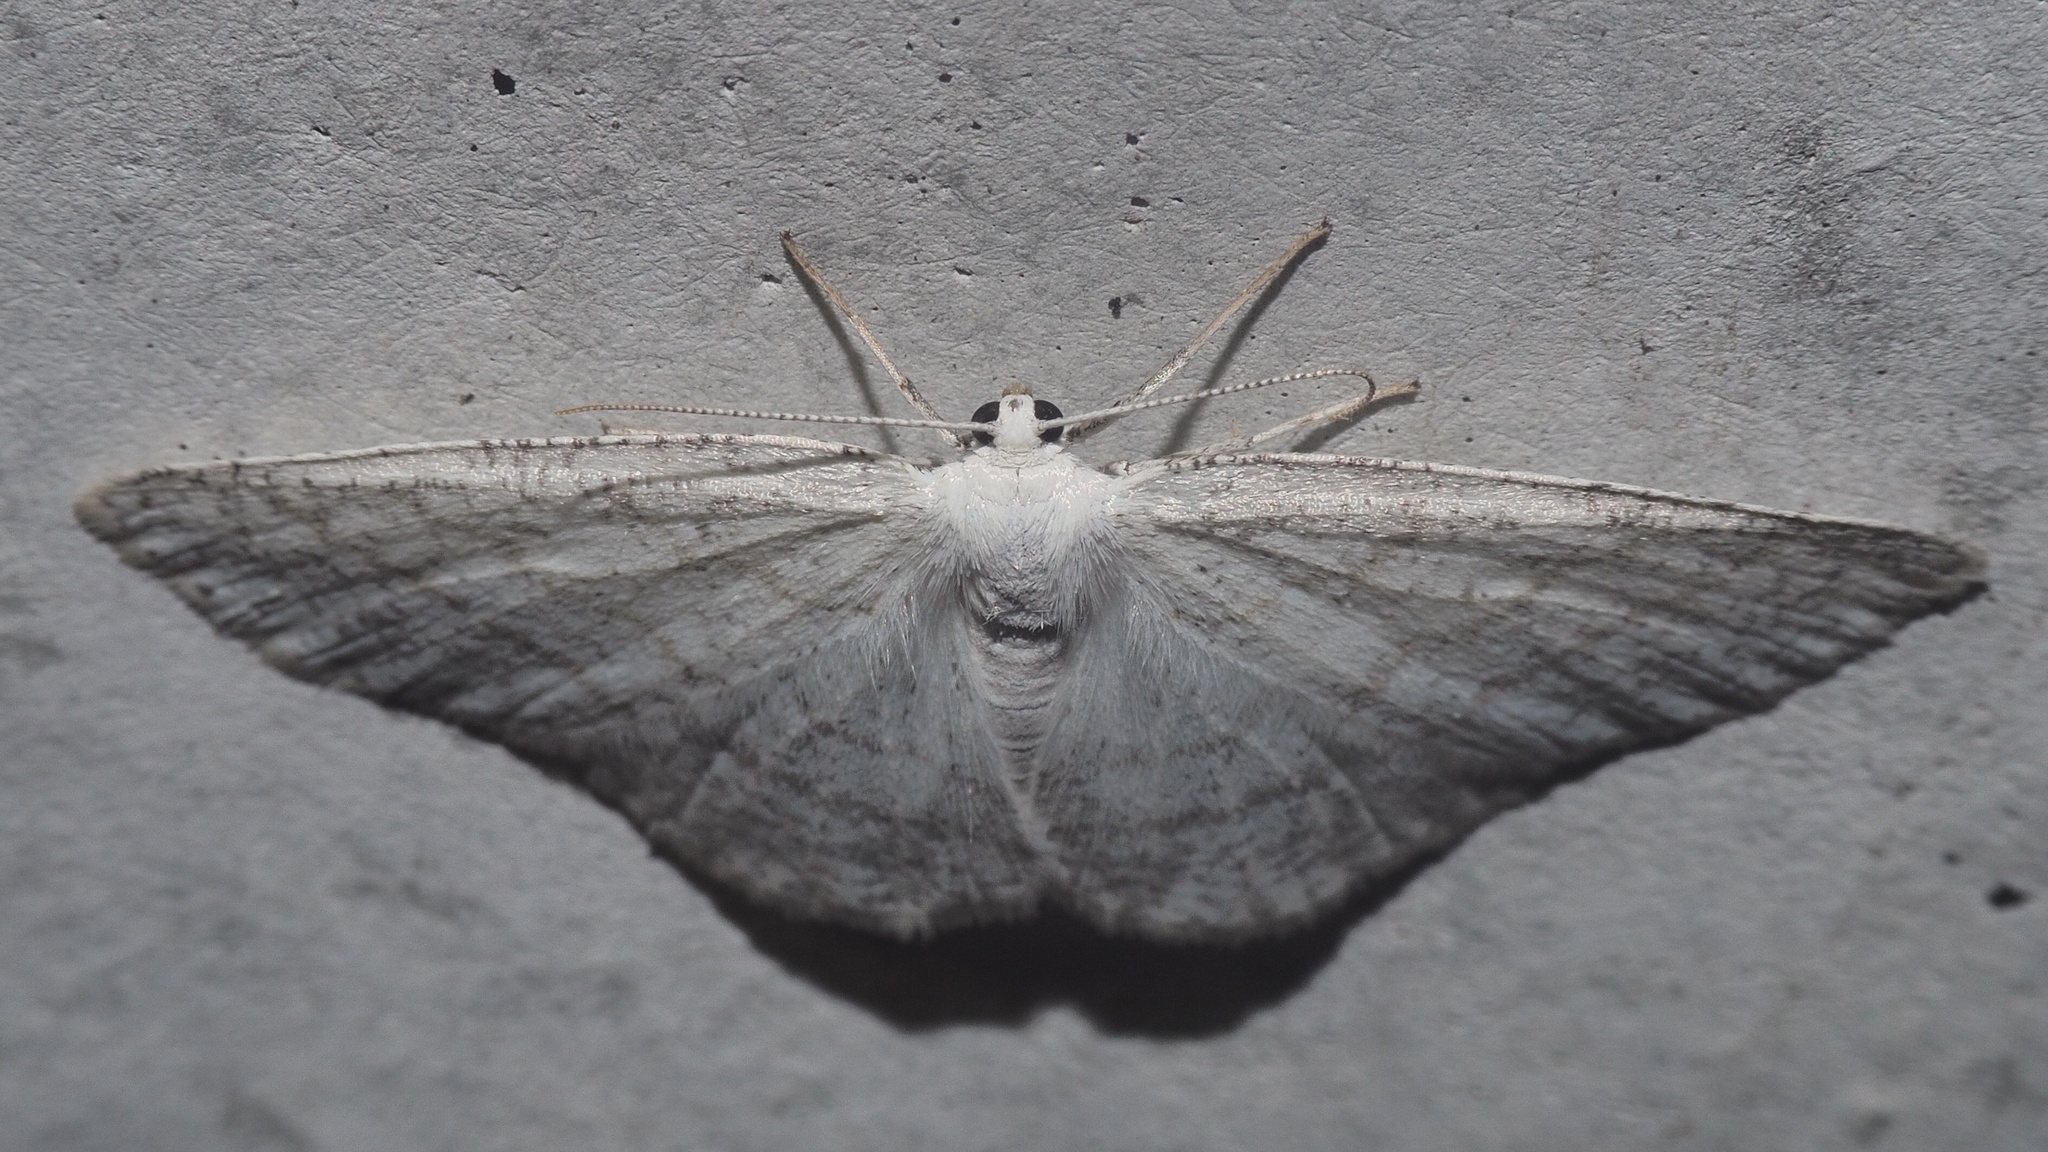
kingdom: Animalia
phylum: Arthropoda
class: Insecta
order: Lepidoptera
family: Geometridae
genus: Cabera
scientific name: Cabera pusaria
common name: Common white wave
